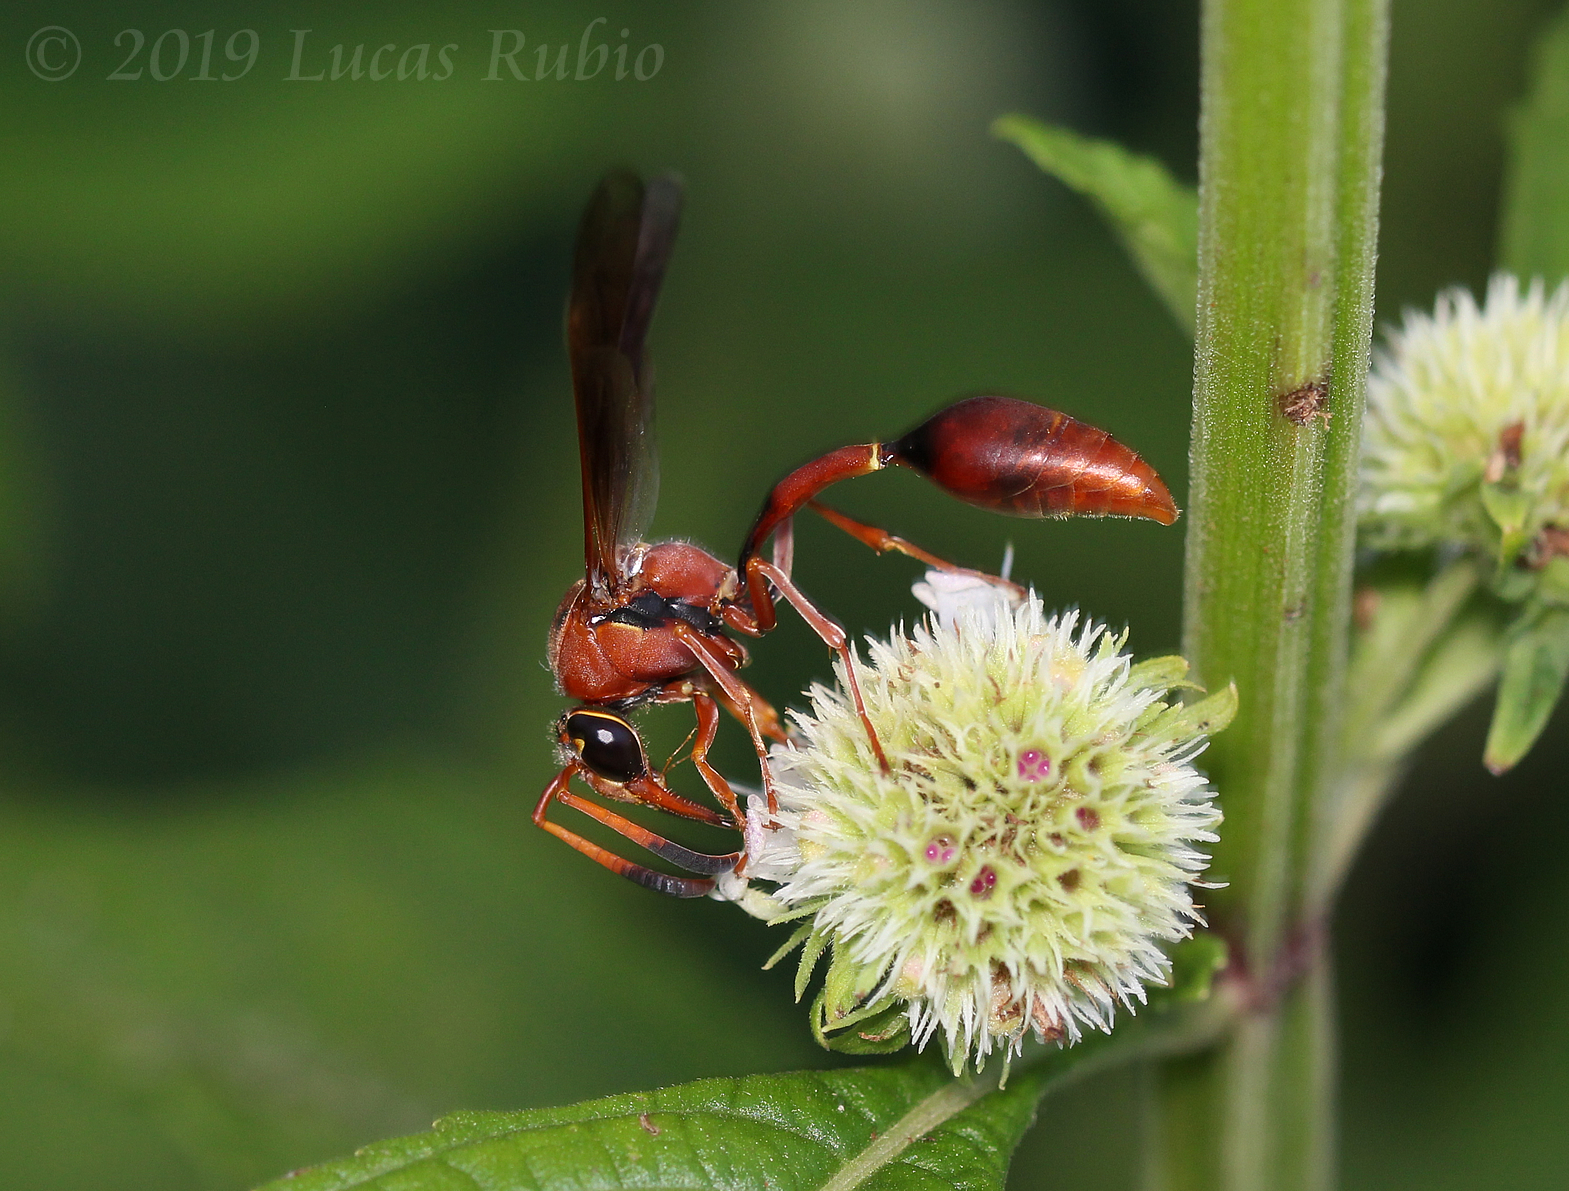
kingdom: Animalia
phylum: Arthropoda
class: Insecta
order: Hymenoptera
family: Eumenidae
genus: Zeta
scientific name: Zeta argillaceum
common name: Potter wasp
